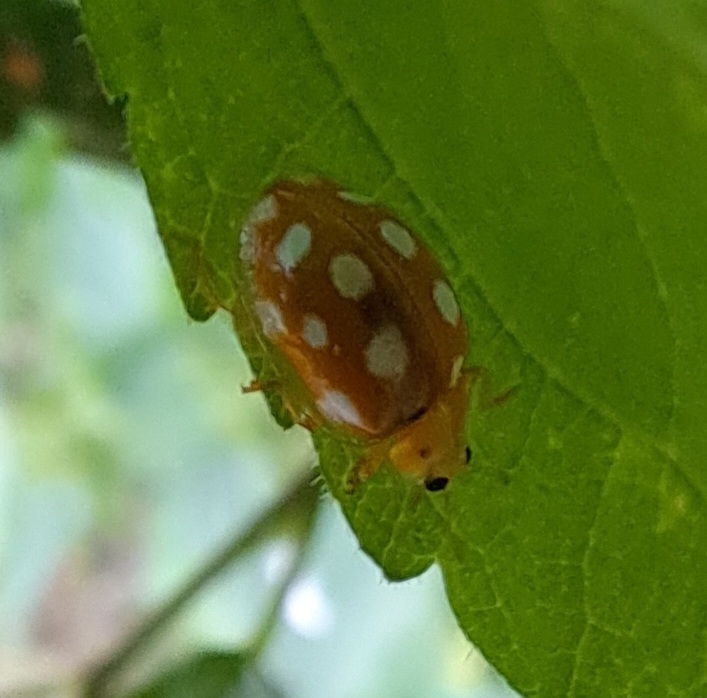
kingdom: Animalia
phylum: Arthropoda
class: Insecta
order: Coleoptera
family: Coccinellidae
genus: Halyzia
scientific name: Halyzia sedecimguttata
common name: Orange ladybird
